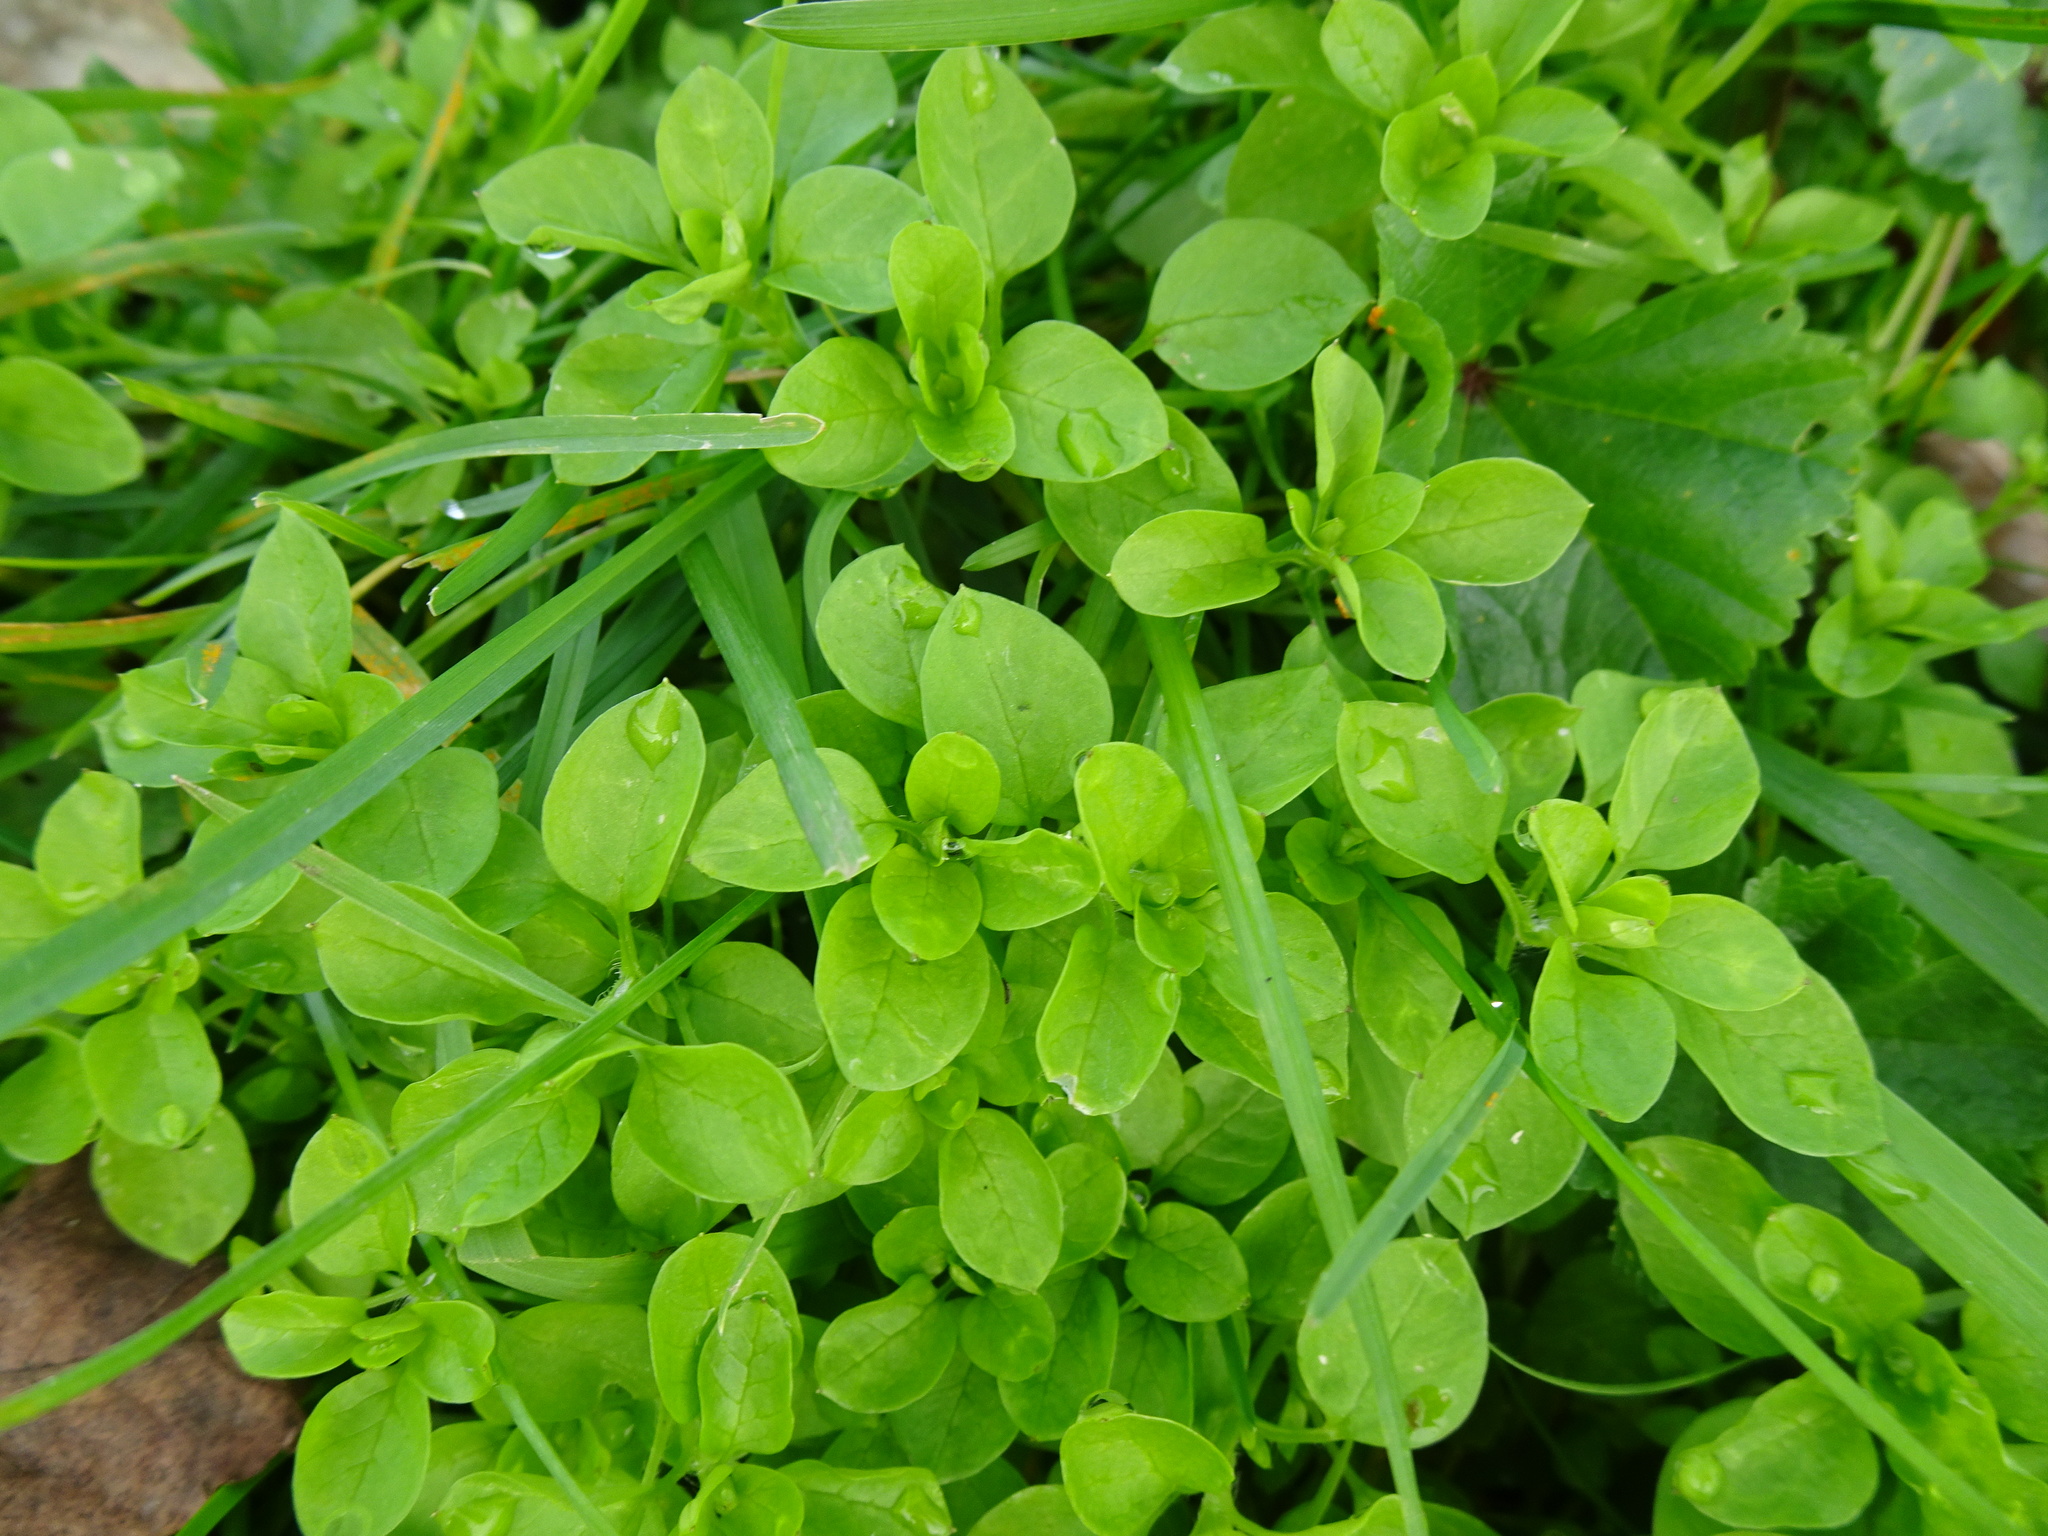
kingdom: Plantae
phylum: Tracheophyta
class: Magnoliopsida
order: Caryophyllales
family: Caryophyllaceae
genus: Stellaria
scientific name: Stellaria media
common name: Common chickweed
